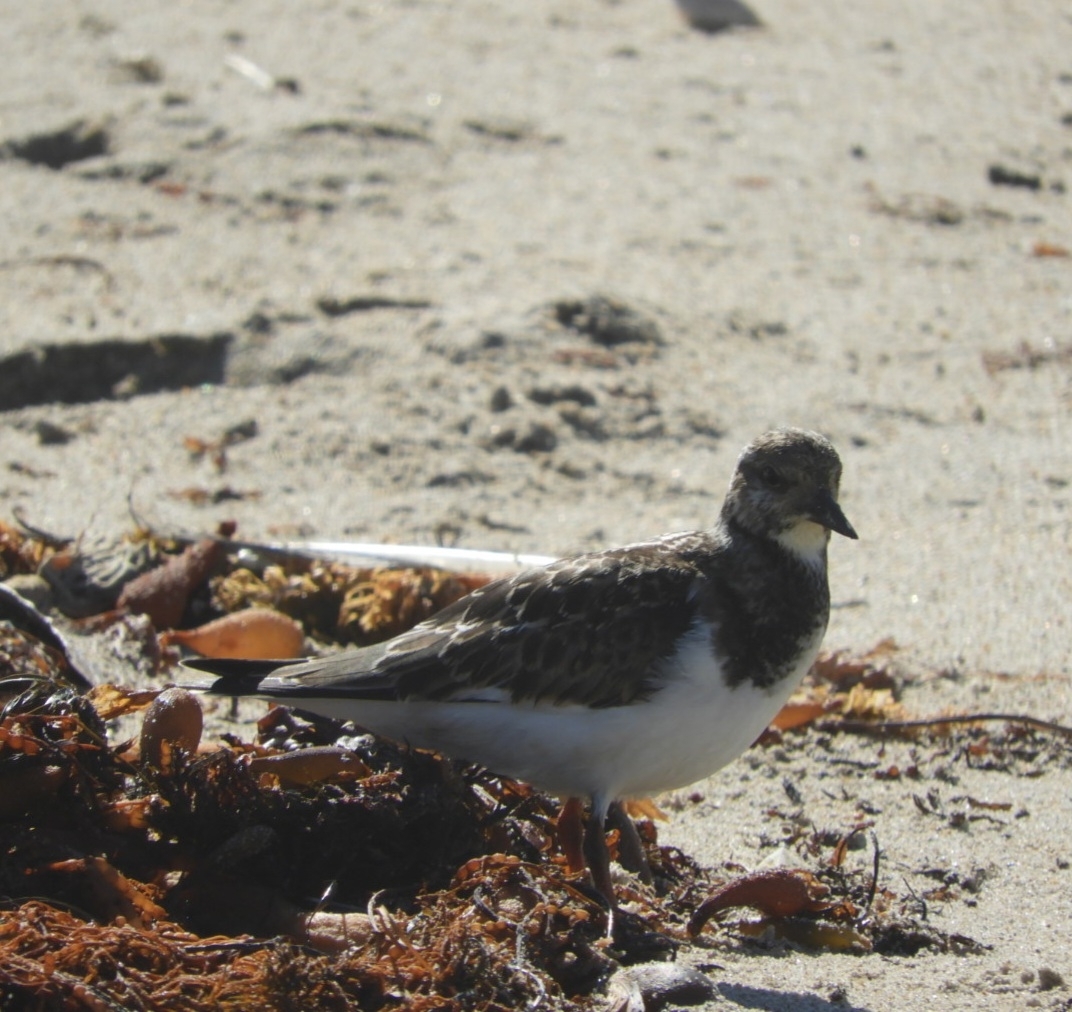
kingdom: Animalia
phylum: Chordata
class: Aves
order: Charadriiformes
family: Scolopacidae
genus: Arenaria
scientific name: Arenaria interpres
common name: Ruddy turnstone
